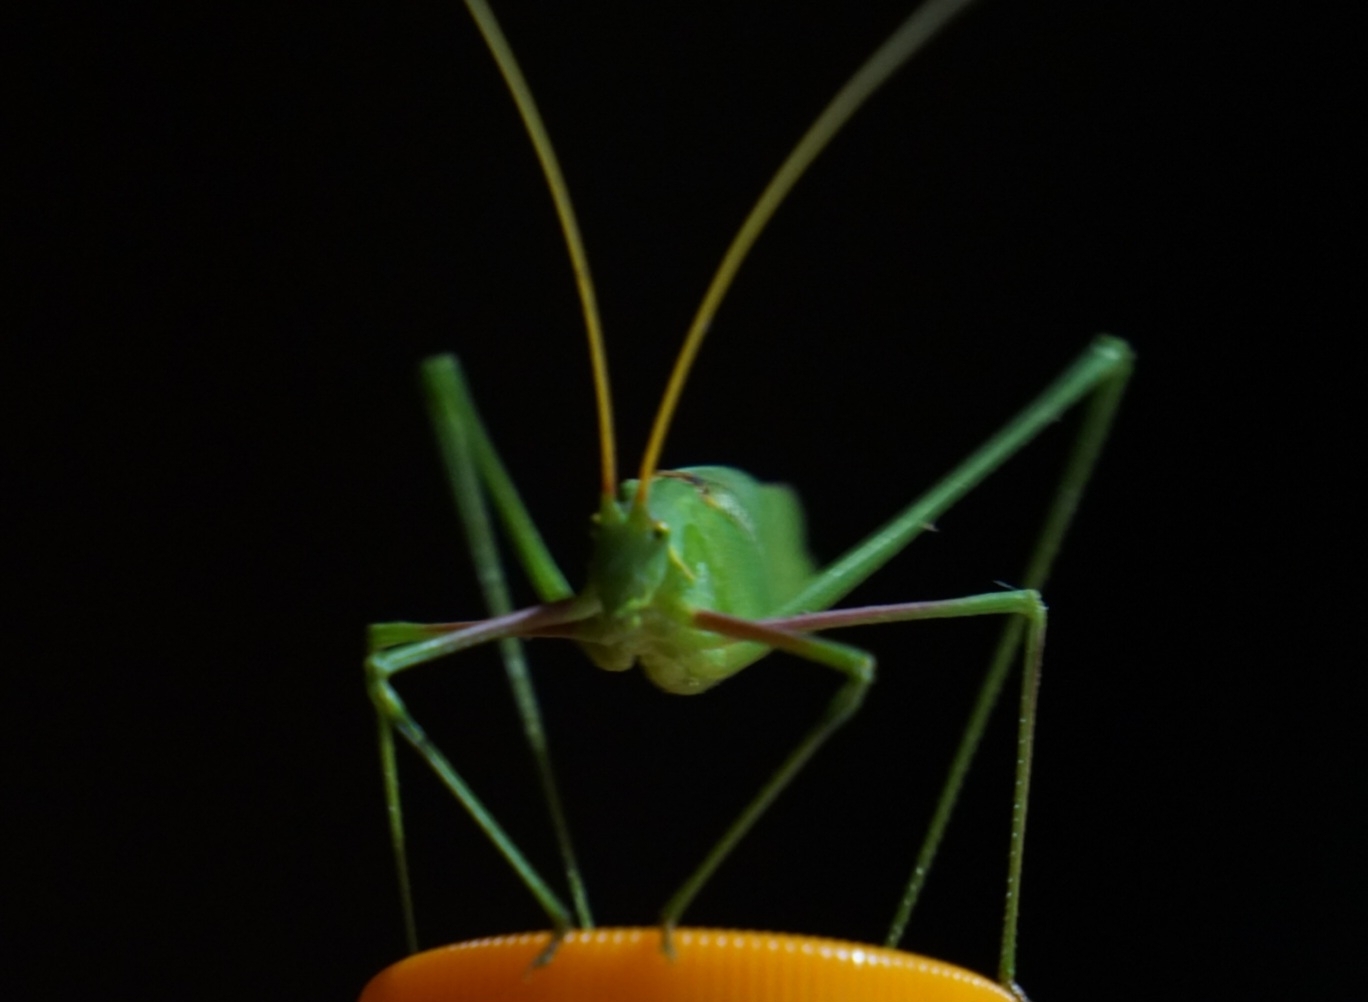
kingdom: Animalia
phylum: Arthropoda
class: Insecta
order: Orthoptera
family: Tettigoniidae
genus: Acrometopa
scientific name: Acrometopa italica
